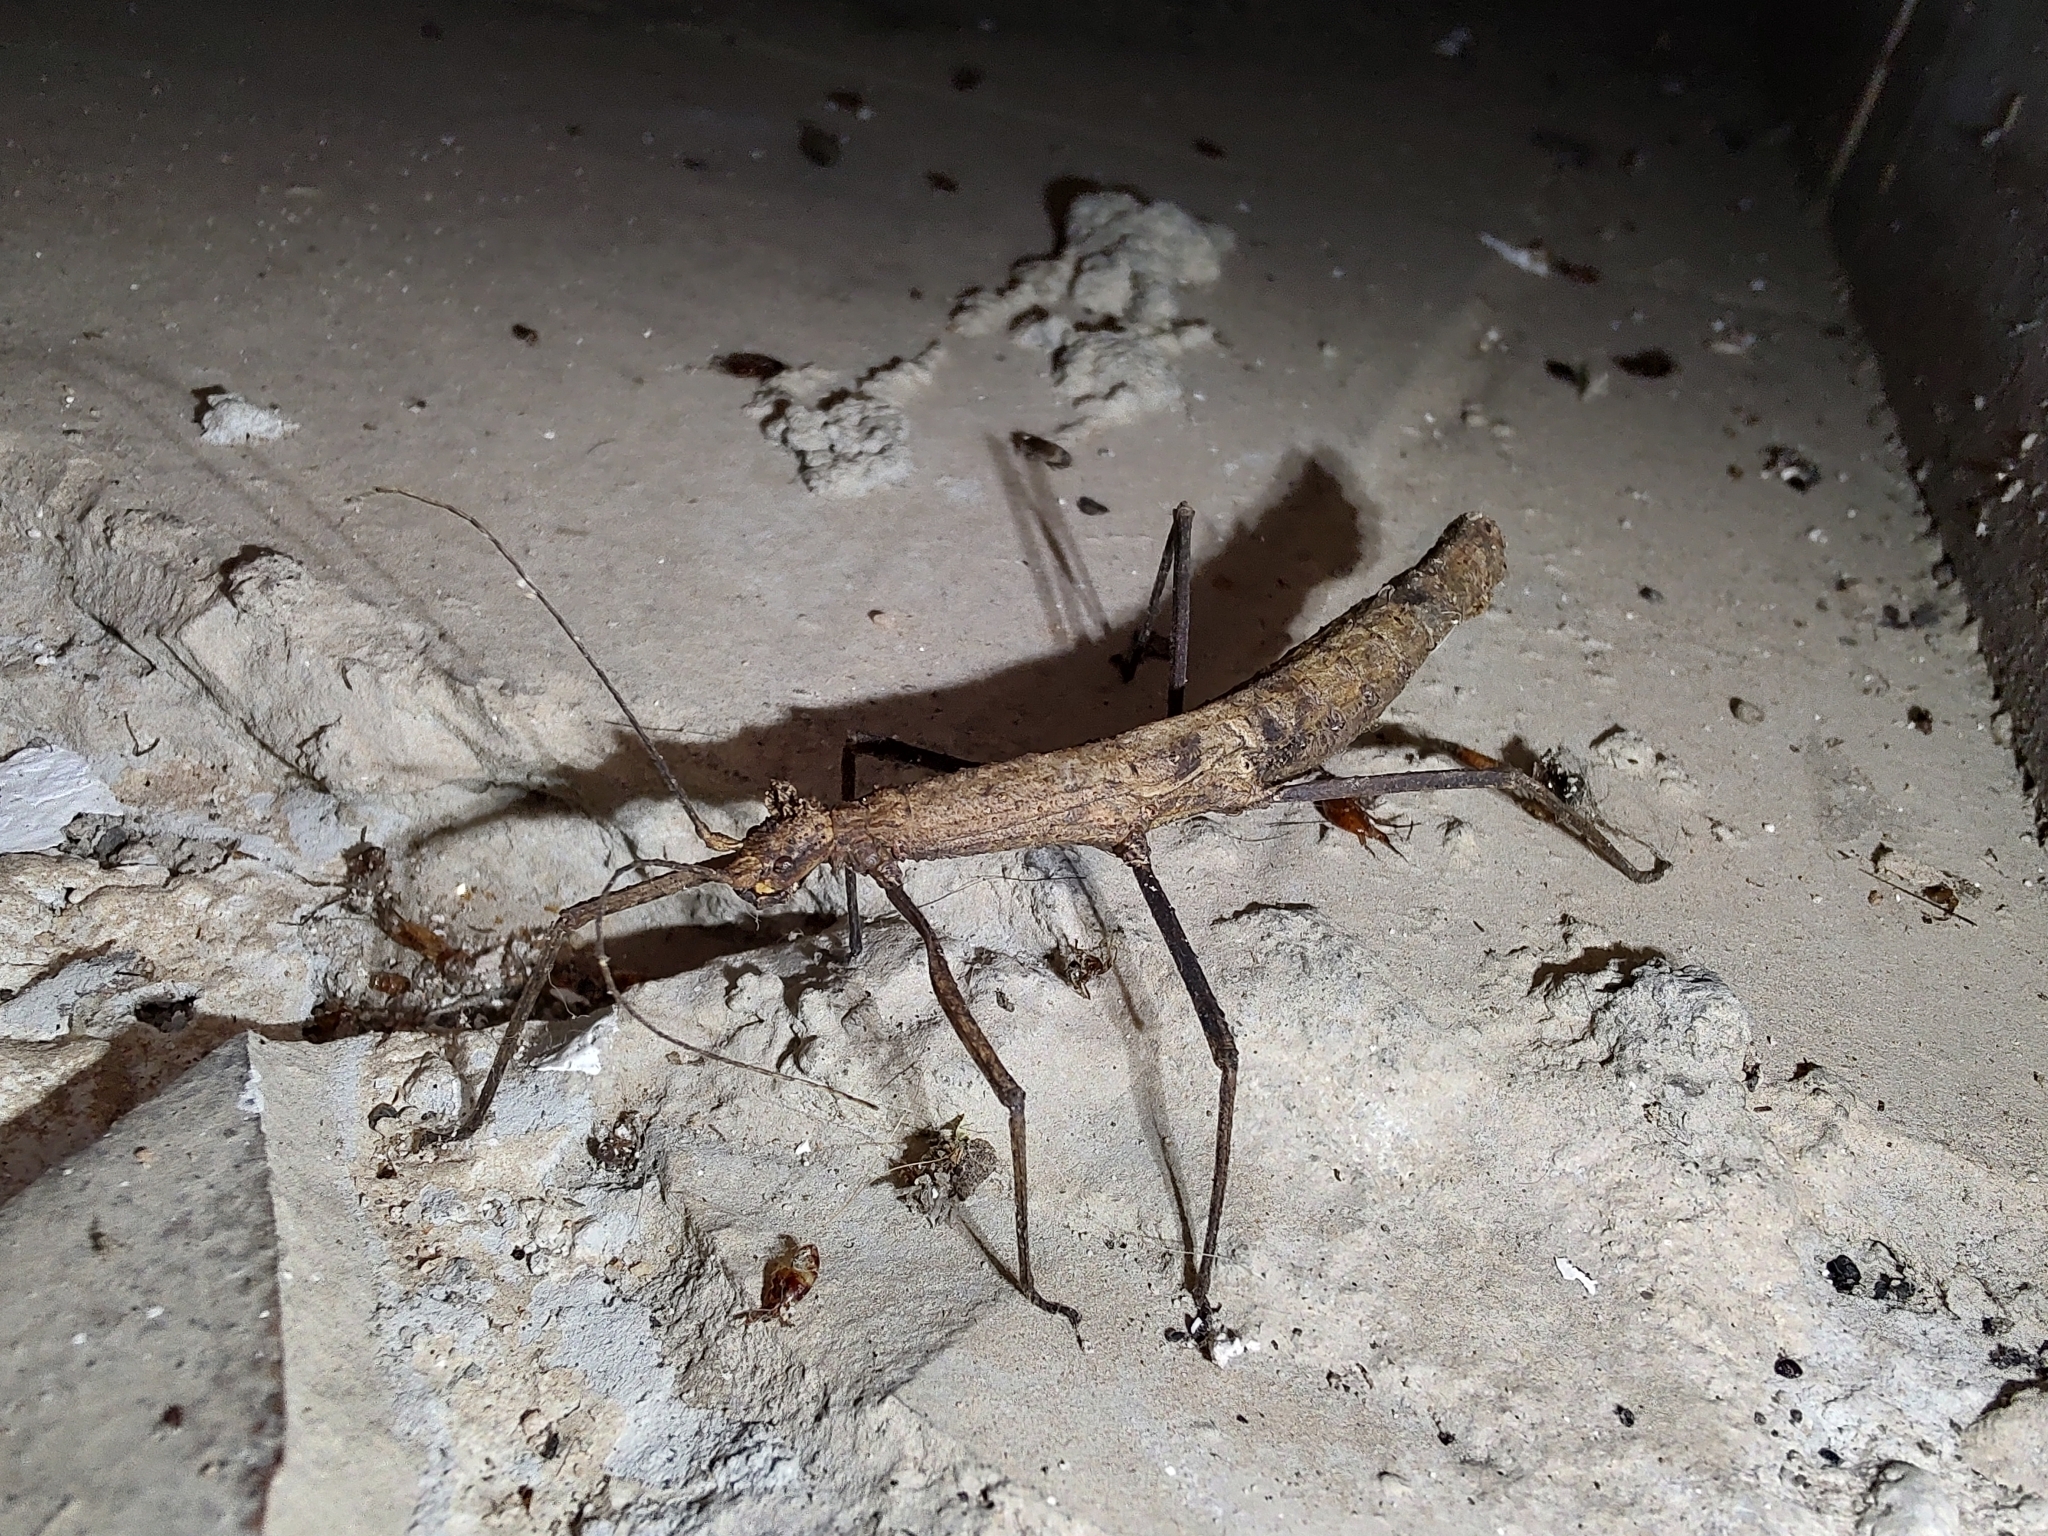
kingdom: Animalia
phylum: Arthropoda
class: Insecta
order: Phasmida
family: Heteronemiidae
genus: Pygirhynchus
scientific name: Pygirhynchus toledopizai
